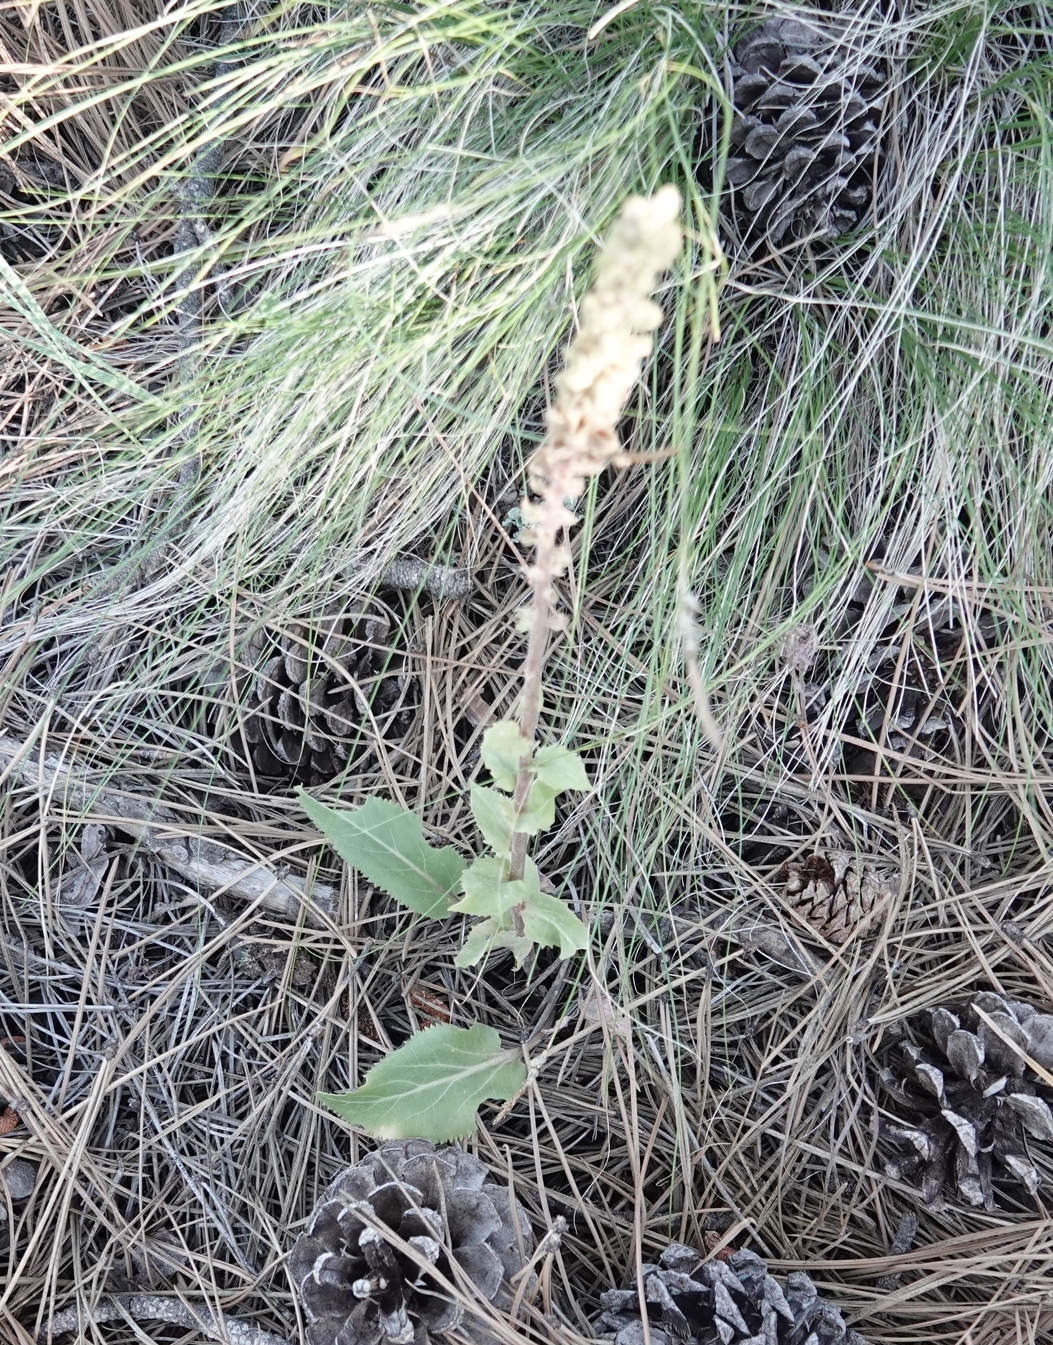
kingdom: Plantae
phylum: Tracheophyta
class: Magnoliopsida
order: Lamiales
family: Plantaginaceae
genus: Synthyris
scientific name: Synthyris wyomingensis
